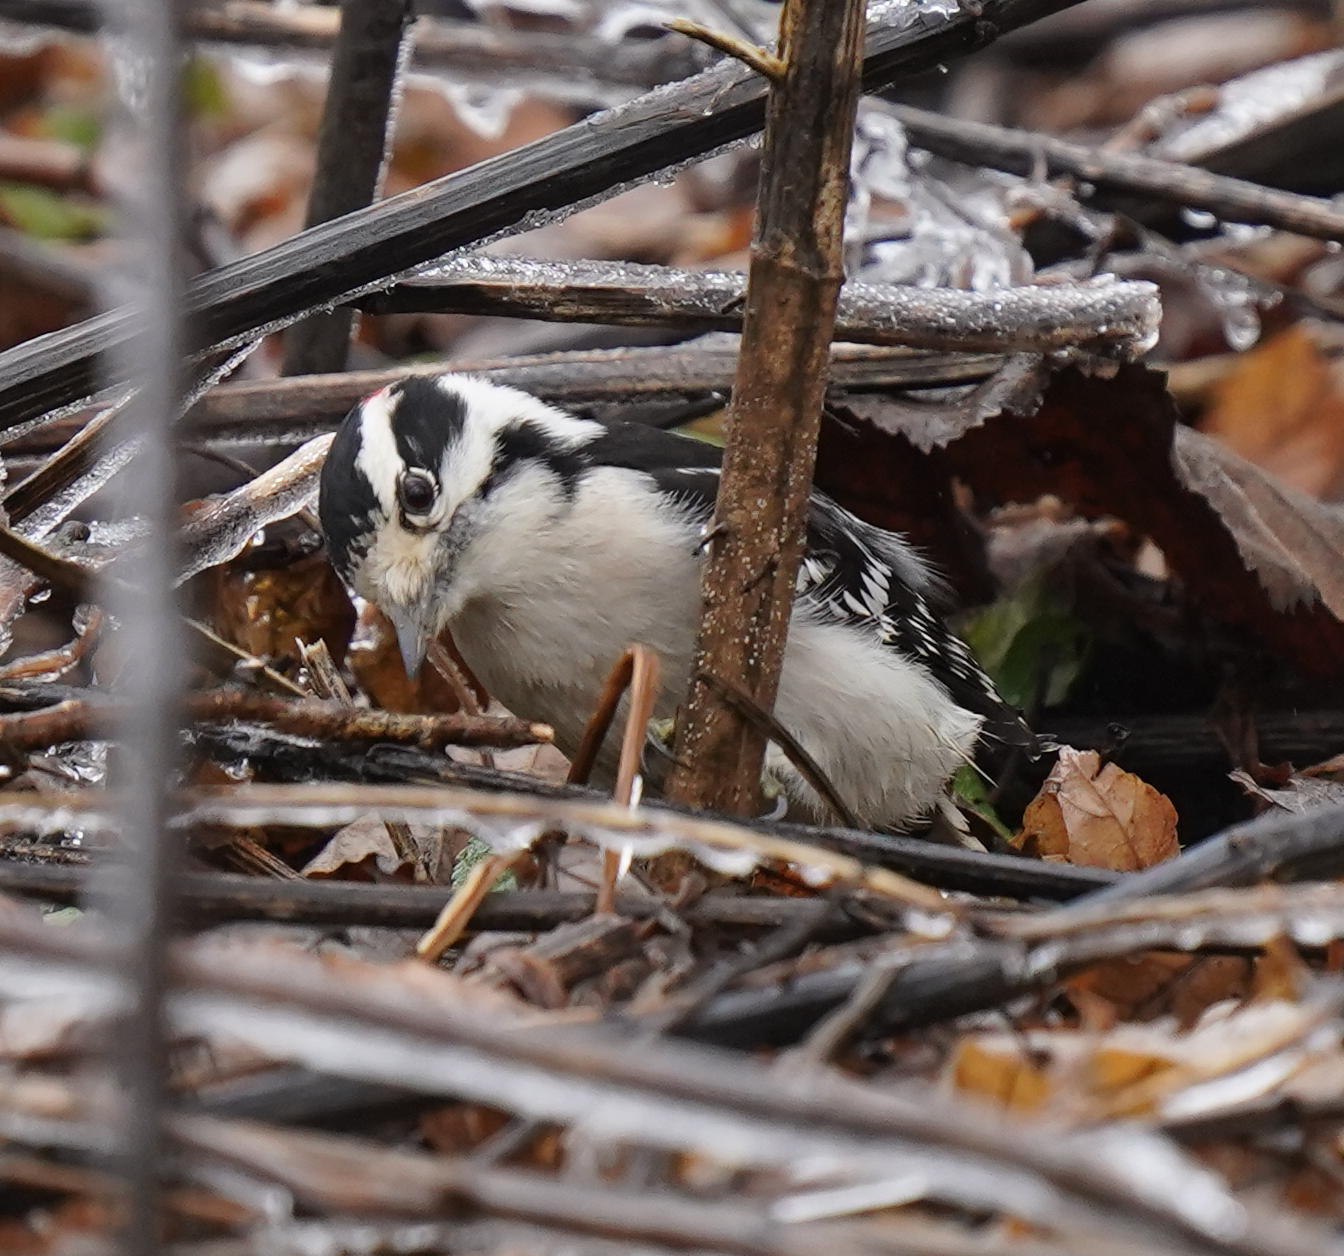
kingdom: Animalia
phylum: Chordata
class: Aves
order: Piciformes
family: Picidae
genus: Dryobates
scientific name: Dryobates pubescens
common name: Downy woodpecker
